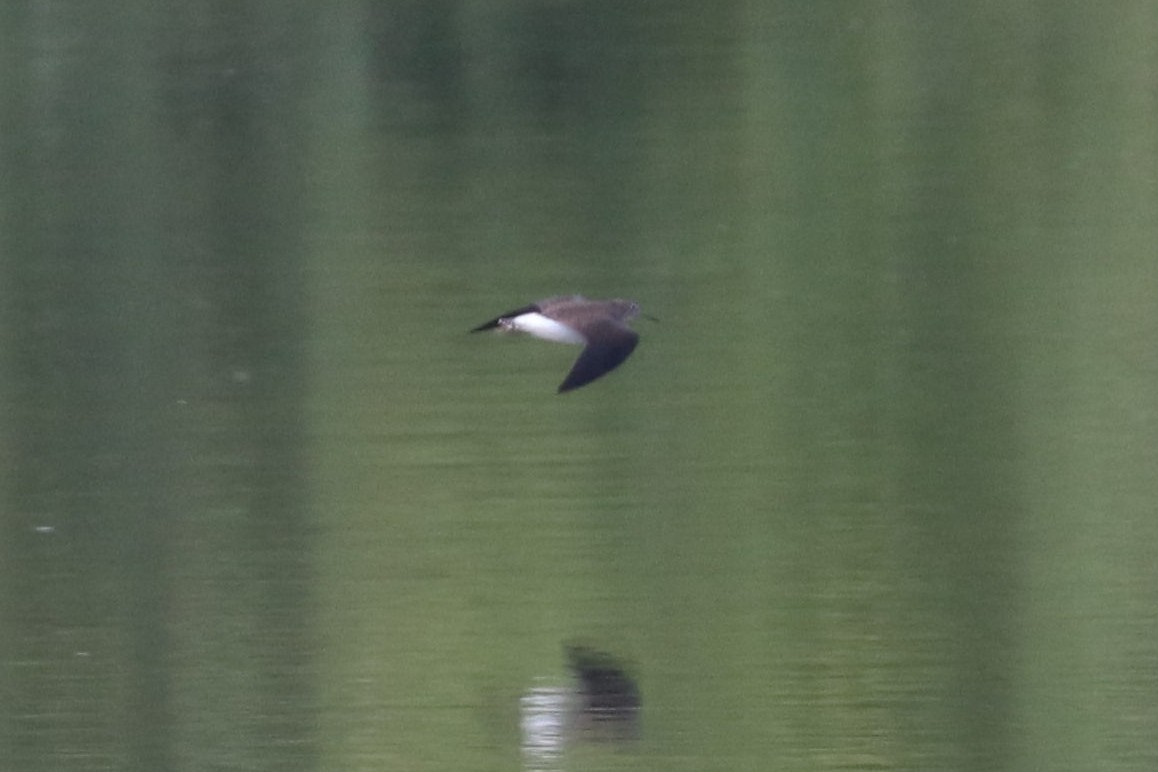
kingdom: Animalia
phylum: Chordata
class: Aves
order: Charadriiformes
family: Scolopacidae
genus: Tringa
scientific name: Tringa ochropus
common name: Green sandpiper
